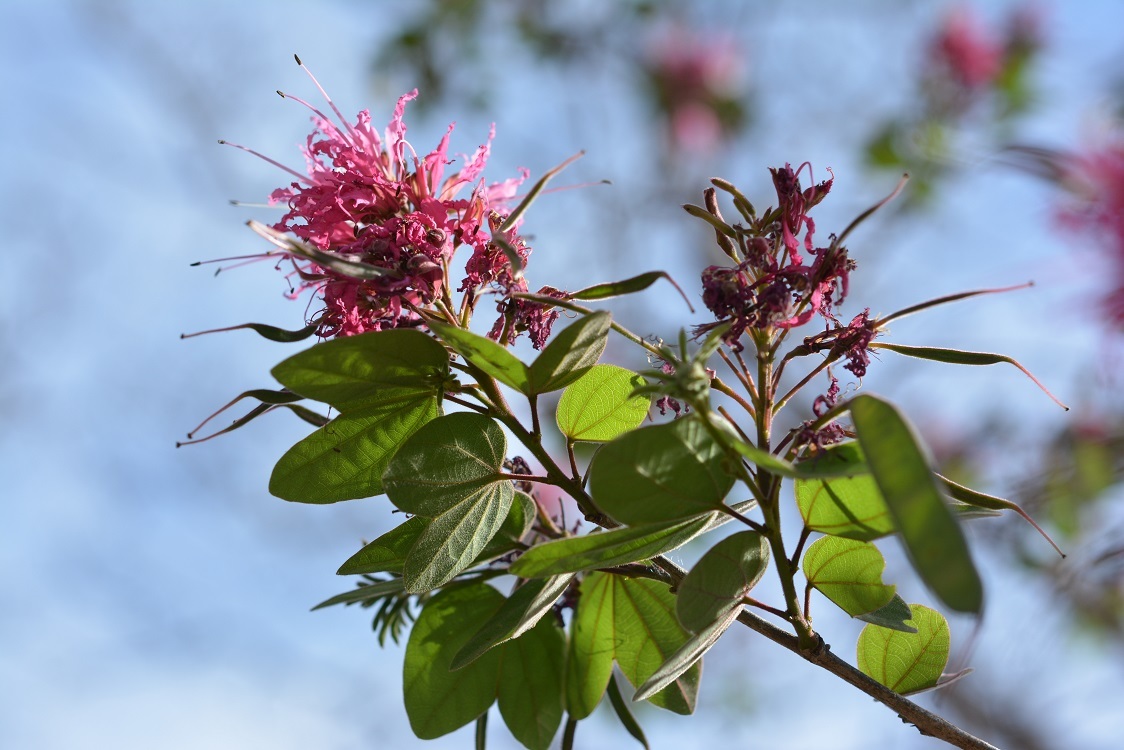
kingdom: Plantae
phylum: Tracheophyta
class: Magnoliopsida
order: Fabales
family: Fabaceae
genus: Bauhinia
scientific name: Bauhinia divaricata
